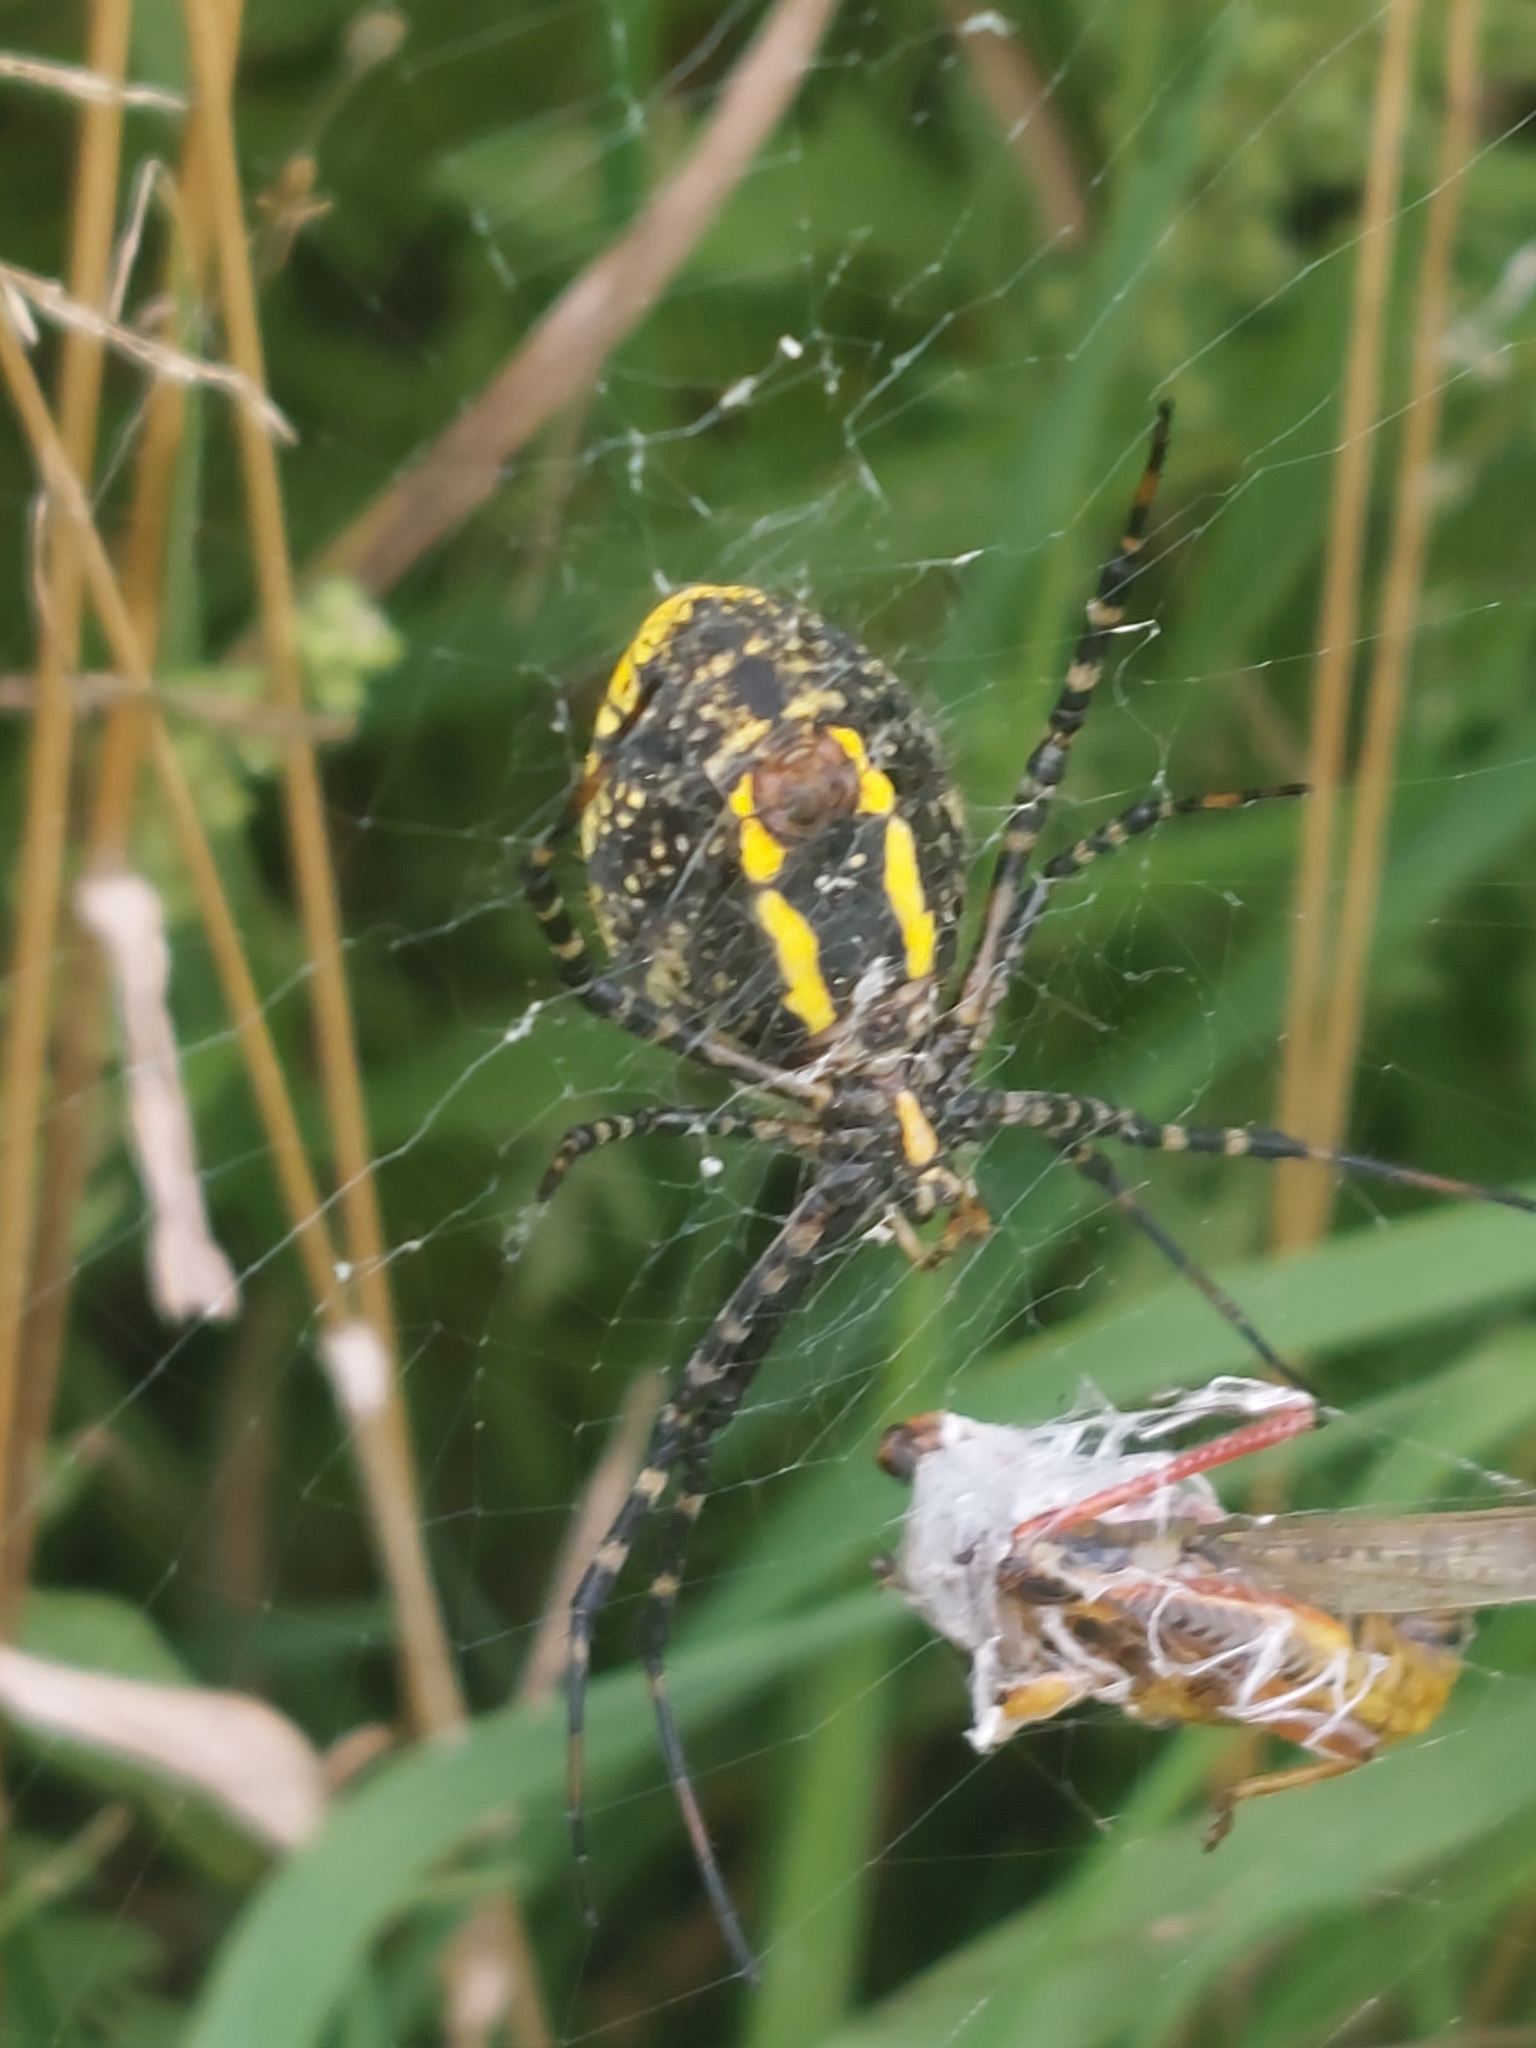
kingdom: Animalia
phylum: Arthropoda
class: Arachnida
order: Araneae
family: Araneidae
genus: Argiope
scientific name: Argiope trifasciata
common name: Banded garden spider
